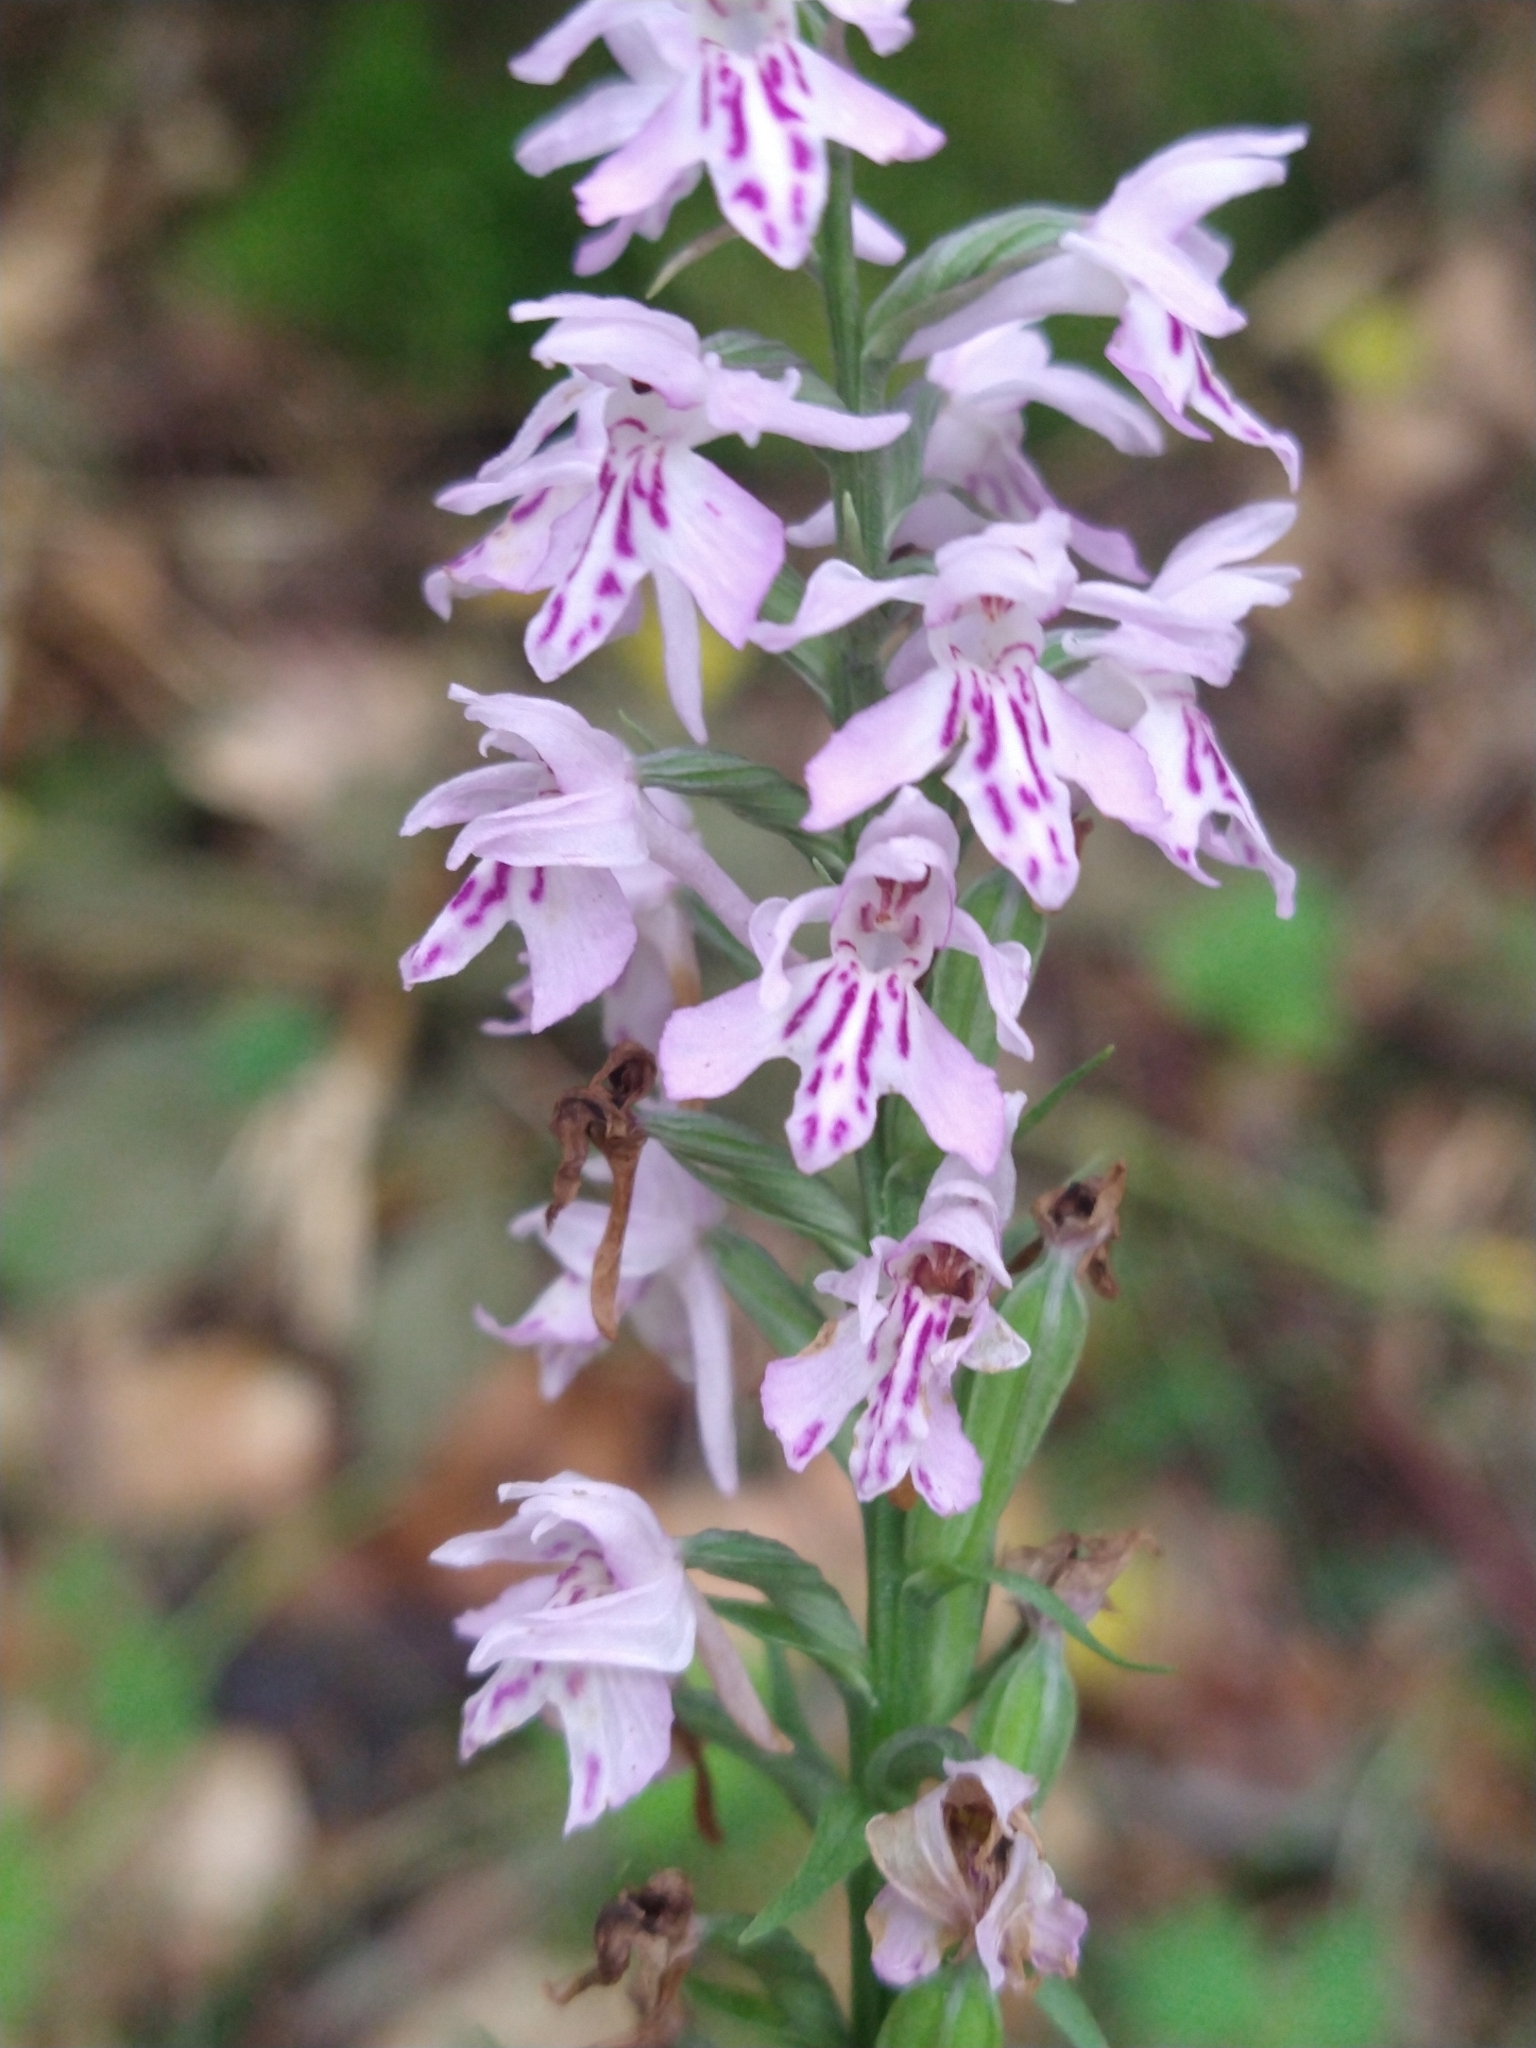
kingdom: Plantae
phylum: Tracheophyta
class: Liliopsida
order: Asparagales
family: Orchidaceae
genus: Dactylorhiza
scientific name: Dactylorhiza maculata
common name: Heath spotted-orchid
